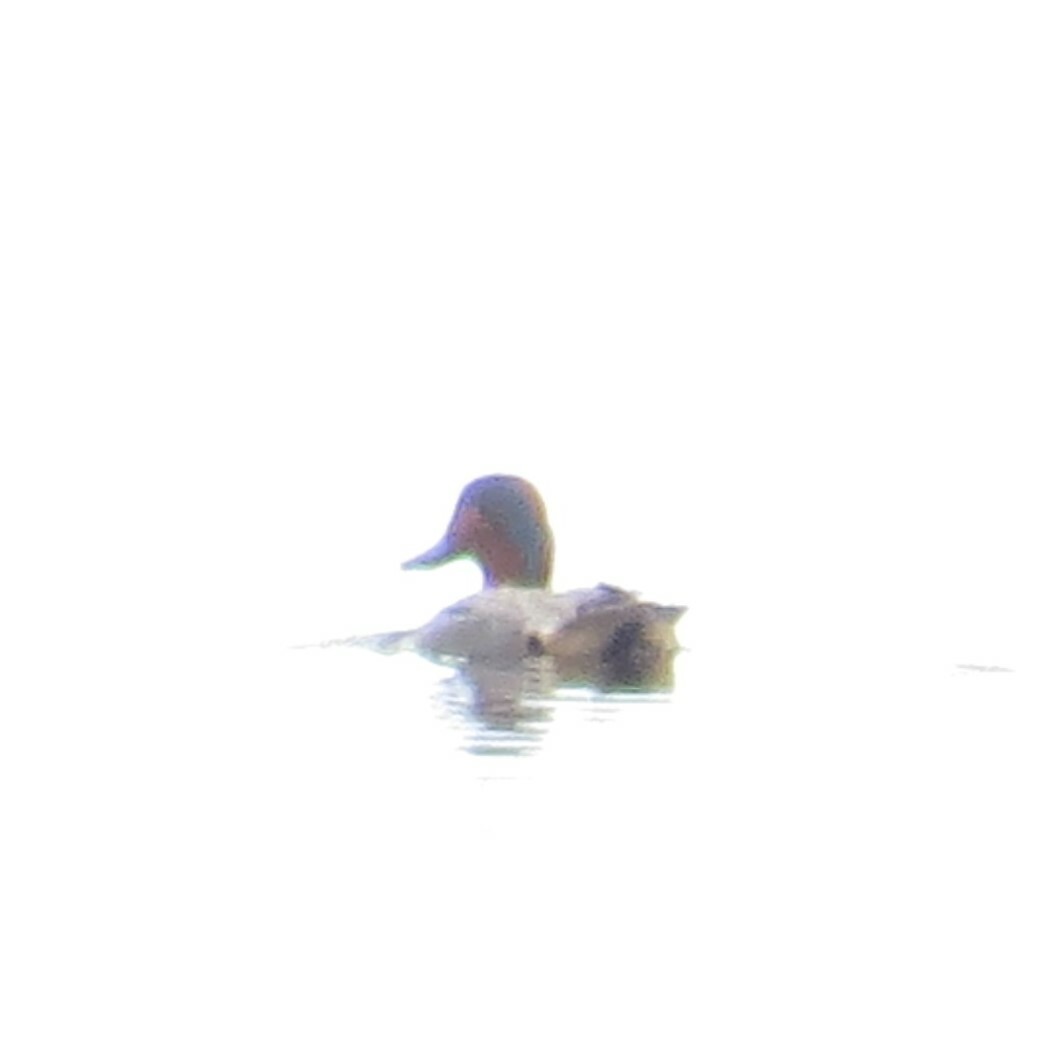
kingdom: Animalia
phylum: Chordata
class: Aves
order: Anseriformes
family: Anatidae
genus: Anas
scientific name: Anas crecca
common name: Eurasian teal
